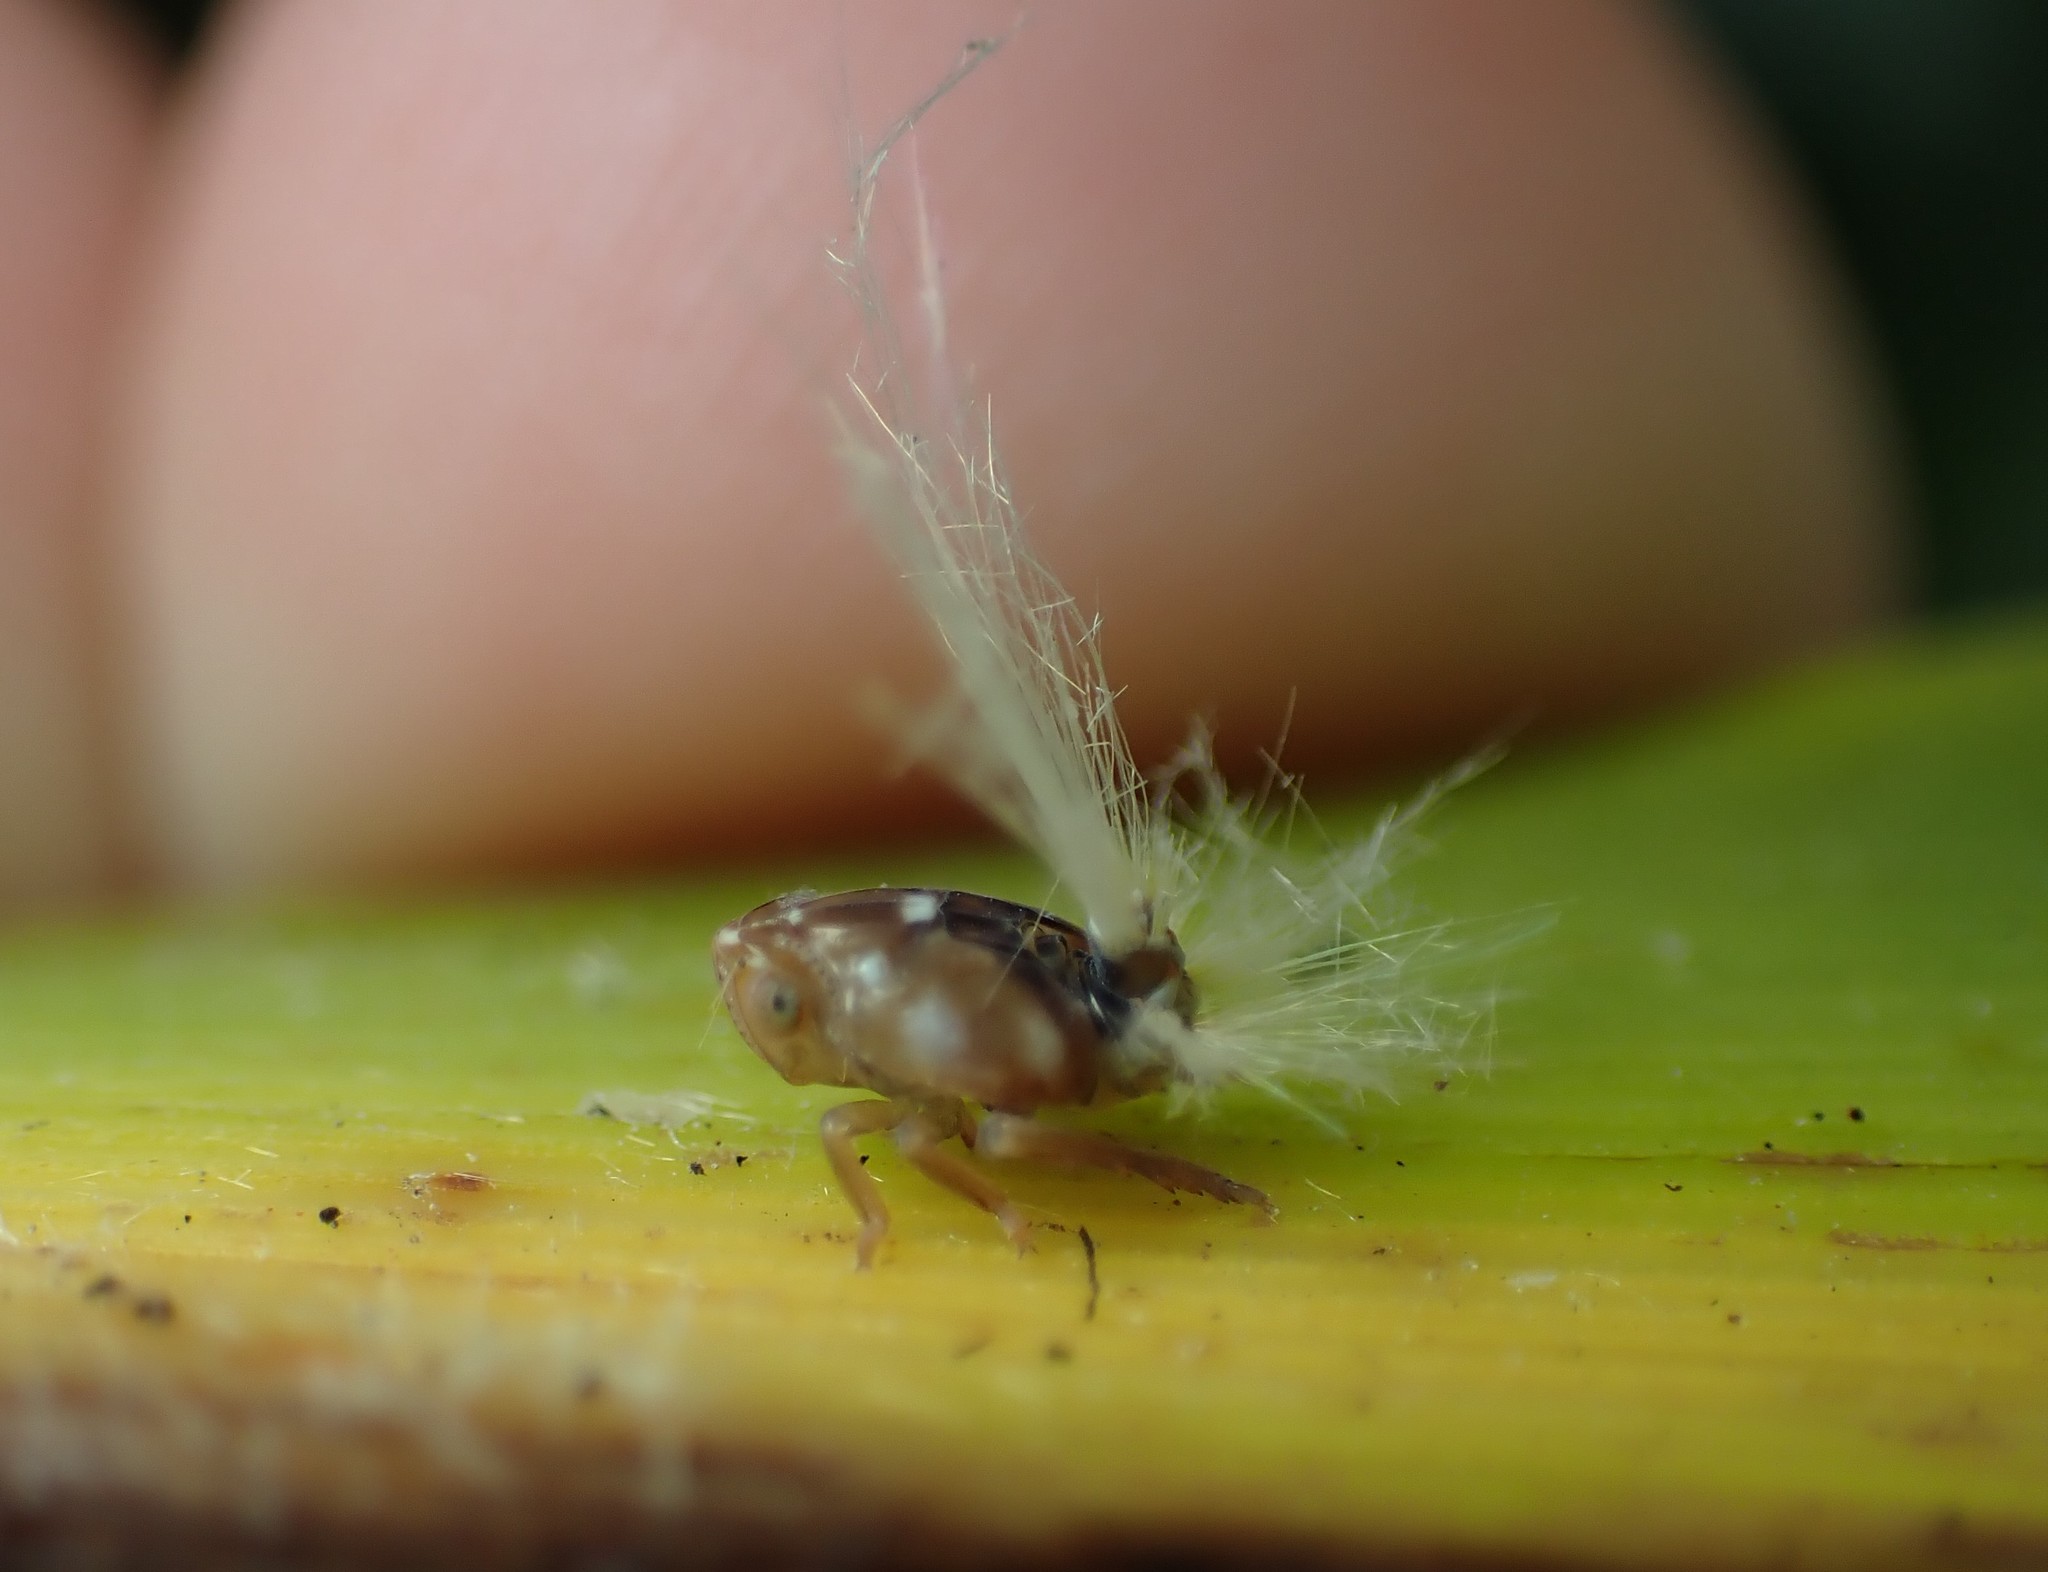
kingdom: Animalia
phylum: Arthropoda
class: Insecta
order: Hemiptera
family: Ricaniidae
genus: Scolypopa
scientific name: Scolypopa australis
